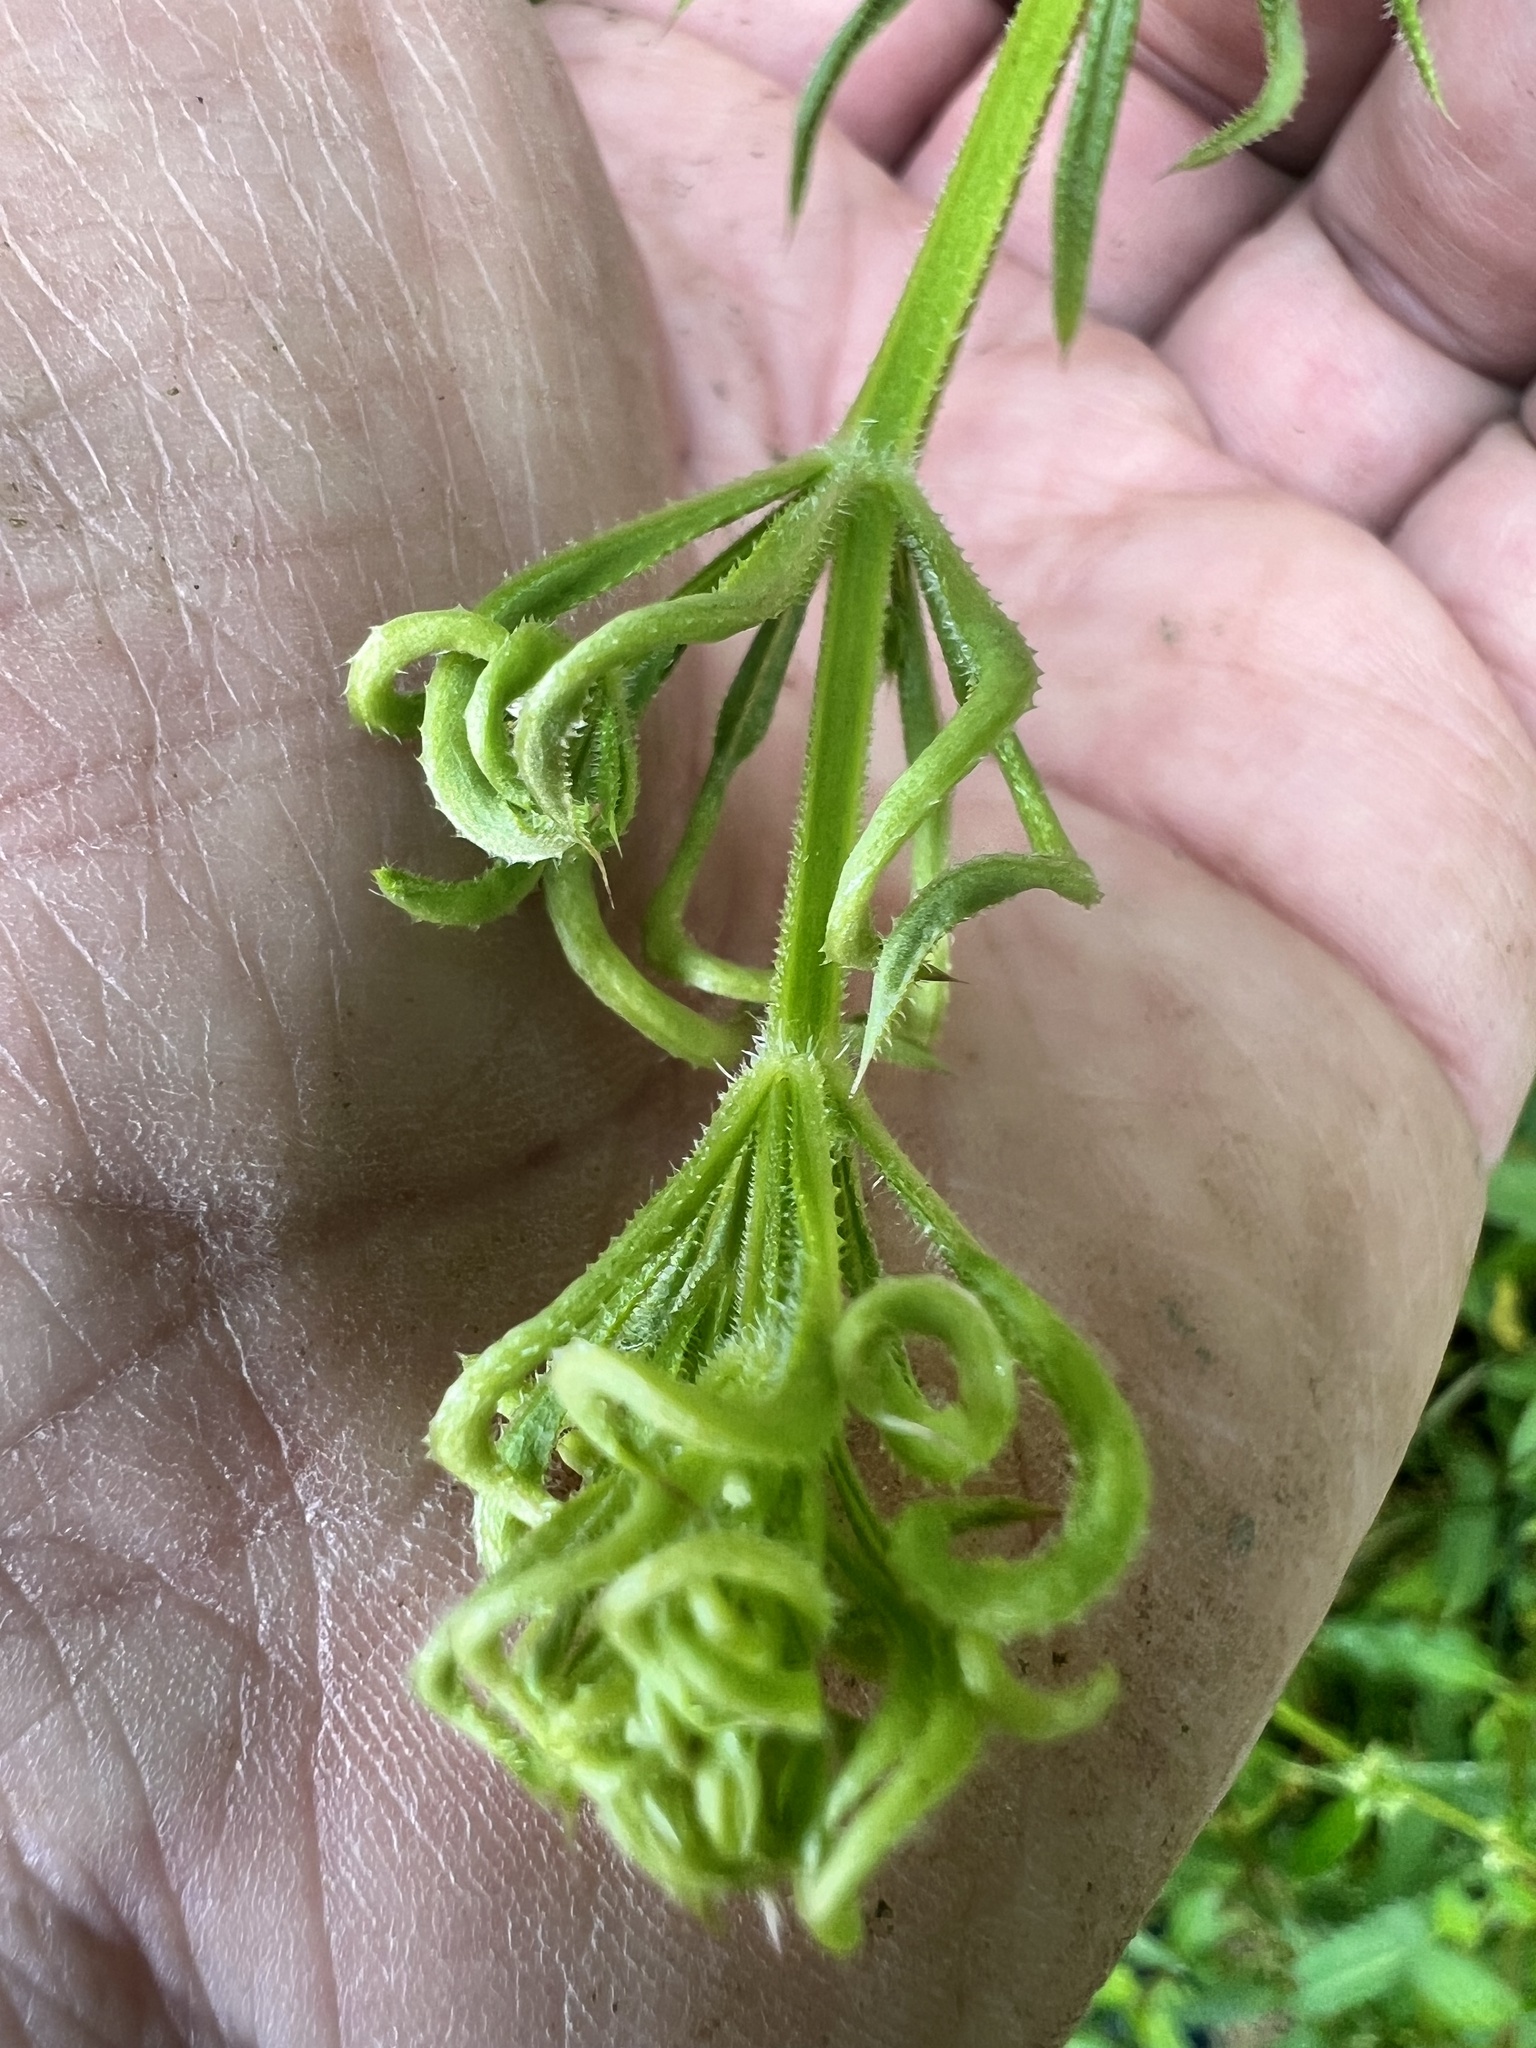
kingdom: Plantae
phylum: Tracheophyta
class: Magnoliopsida
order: Gentianales
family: Rubiaceae
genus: Galium
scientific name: Galium aparine
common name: Cleavers
